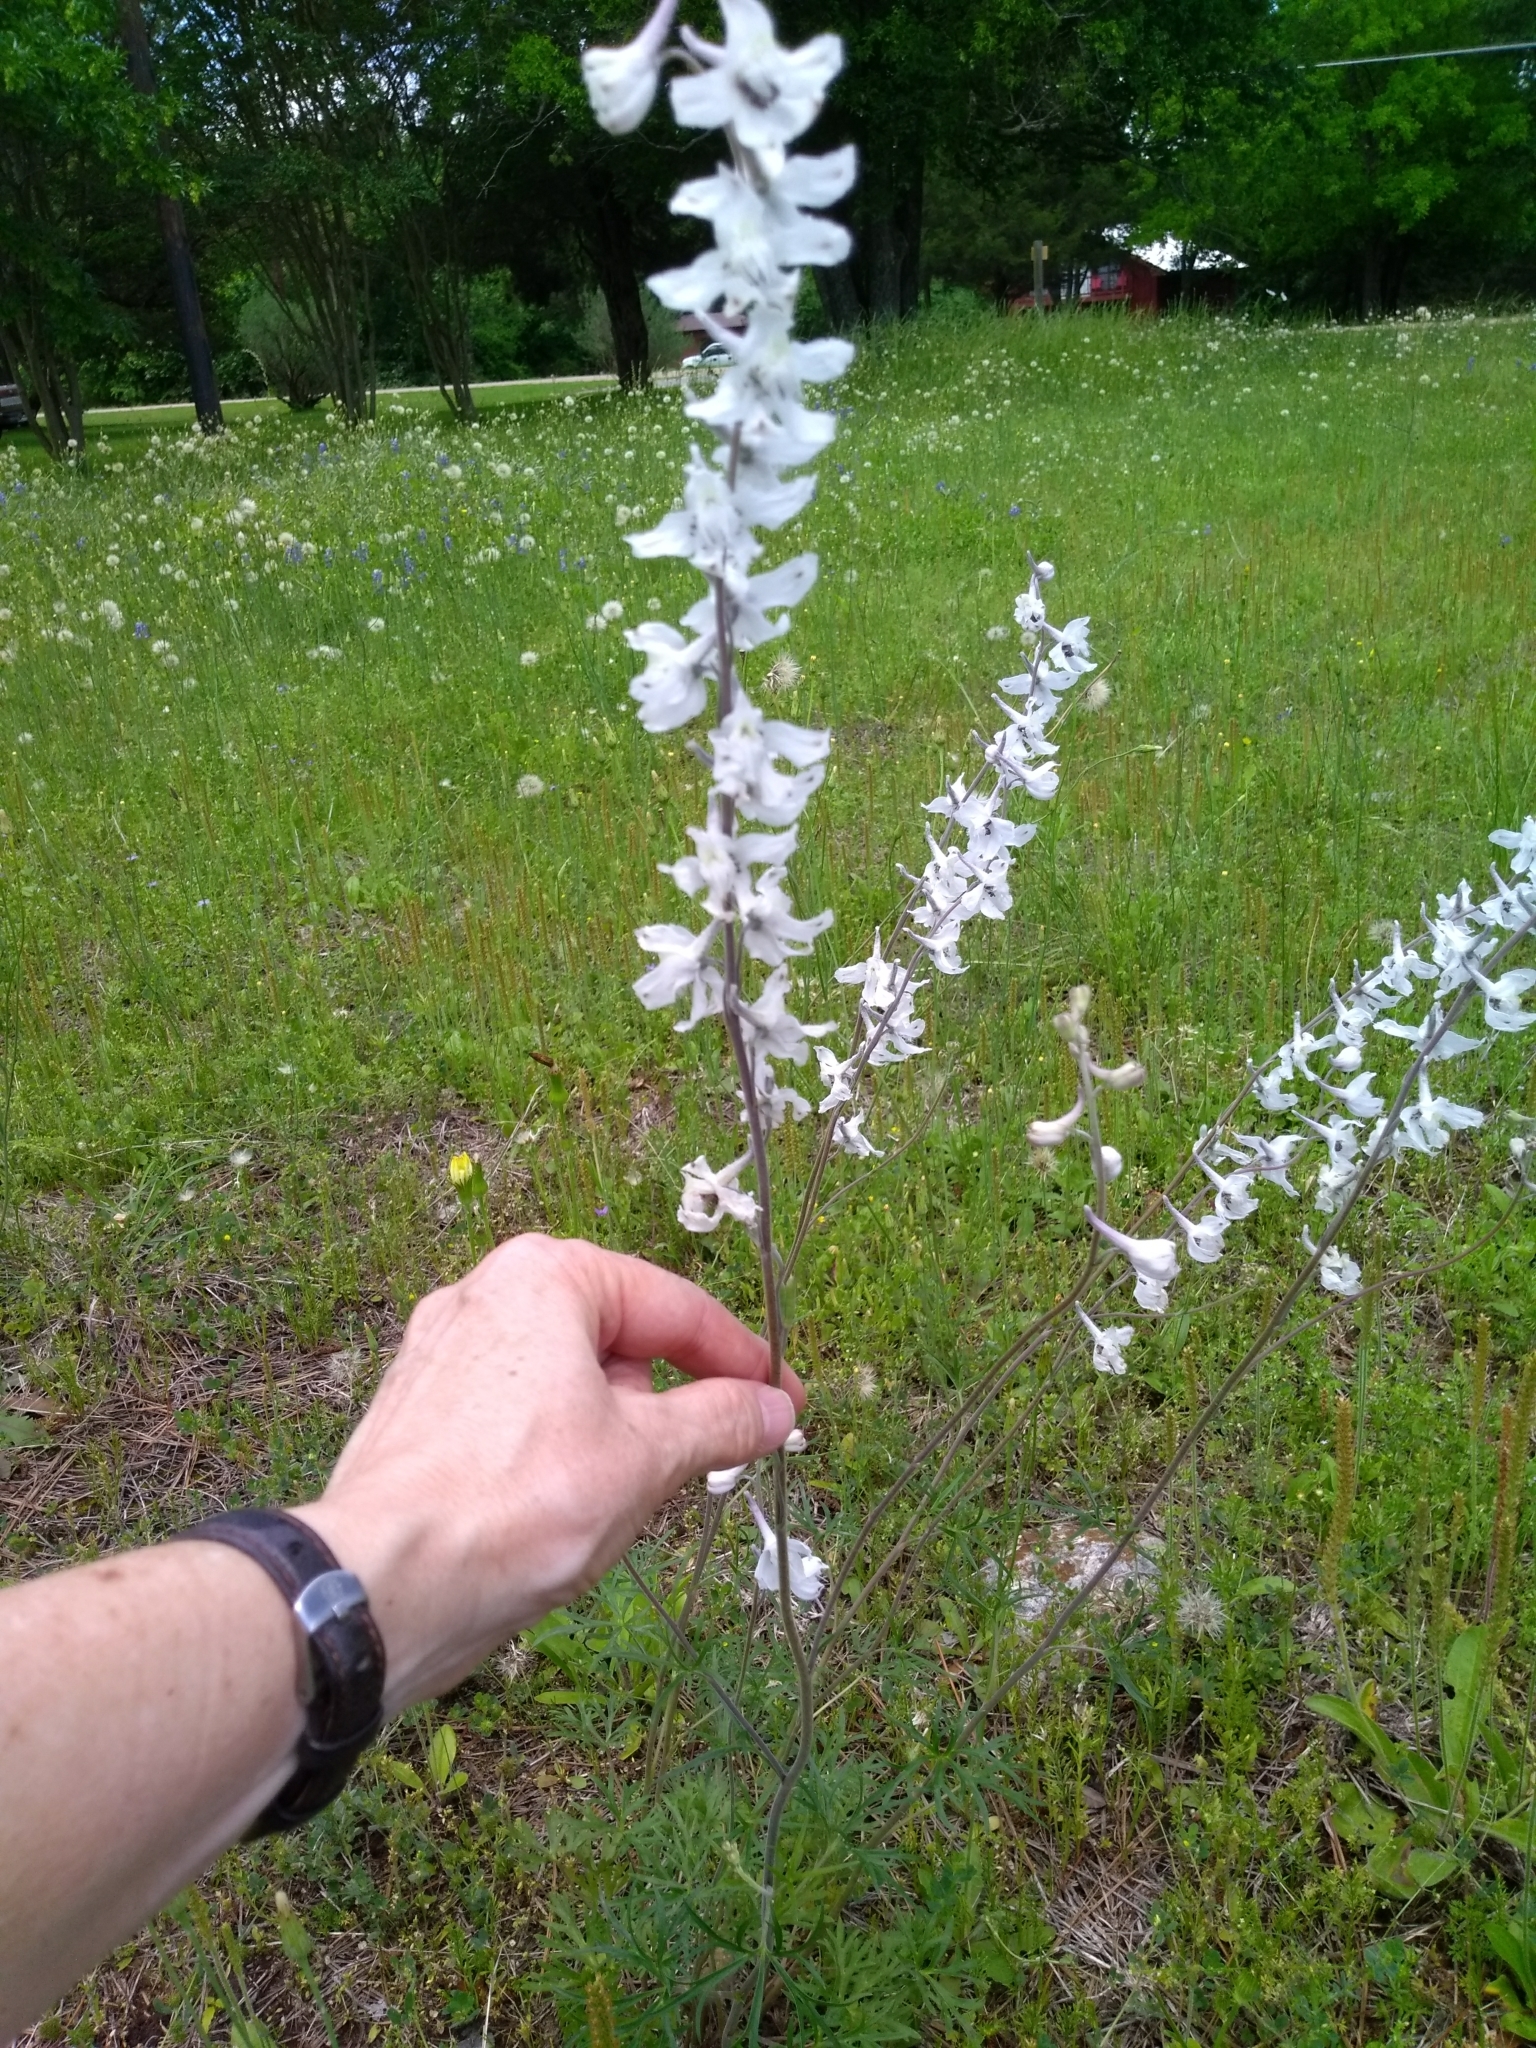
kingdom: Plantae
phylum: Tracheophyta
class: Magnoliopsida
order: Ranunculales
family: Ranunculaceae
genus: Delphinium
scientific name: Delphinium carolinianum
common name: Carolina larkspur
